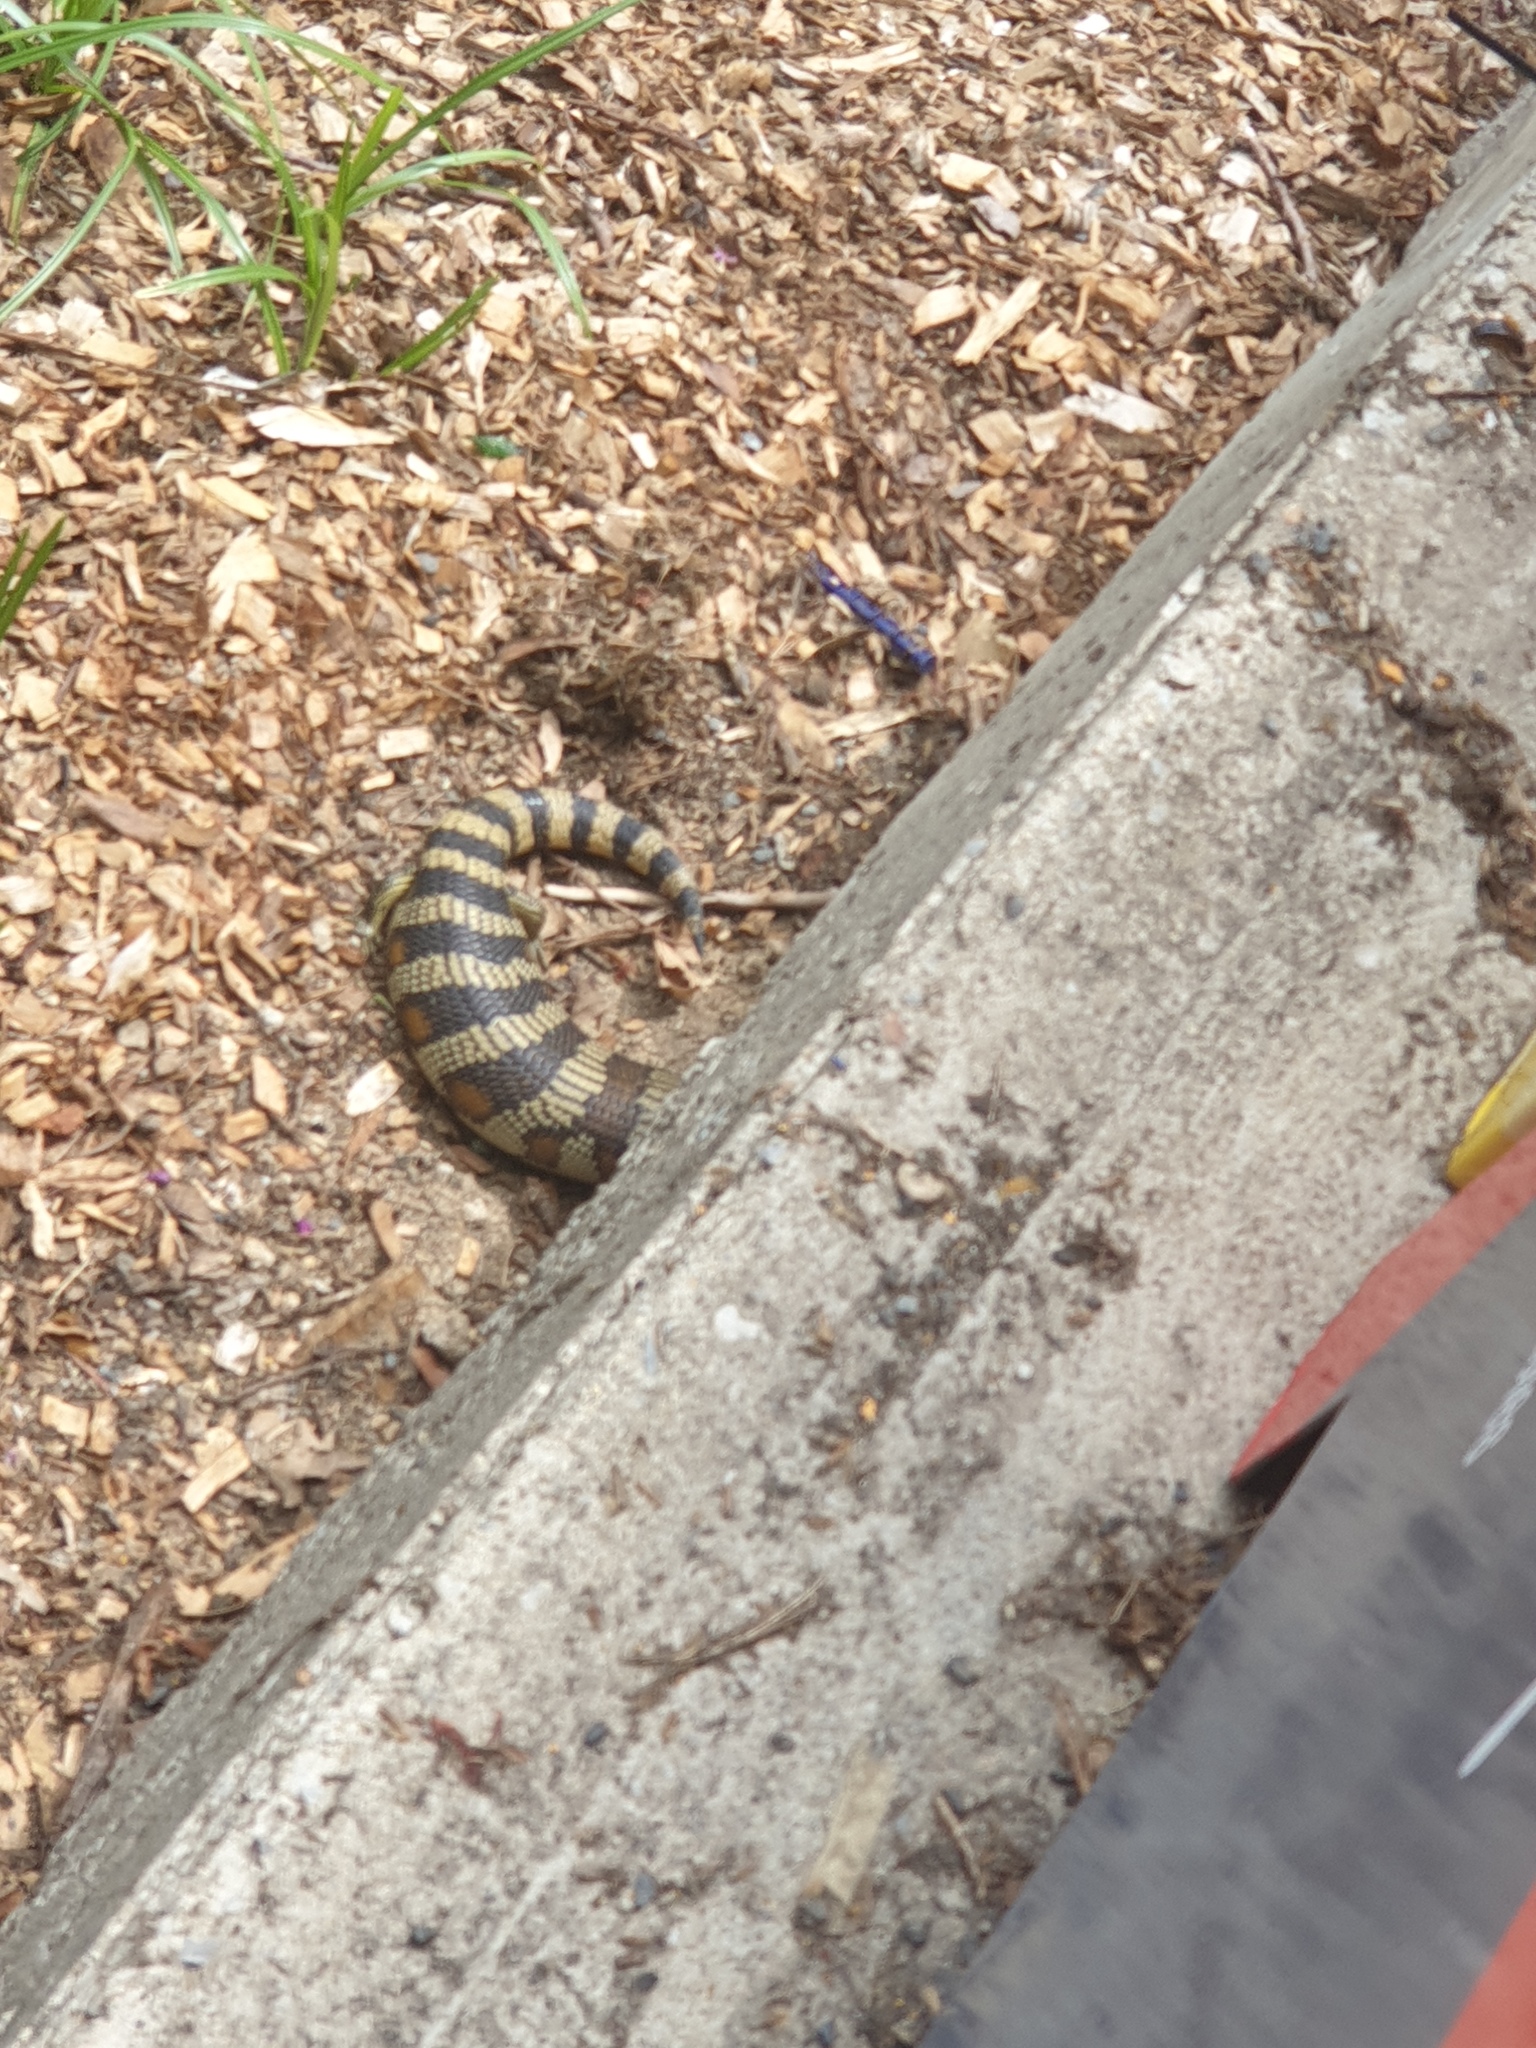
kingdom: Animalia
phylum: Chordata
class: Squamata
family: Scincidae
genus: Tiliqua
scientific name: Tiliqua scincoides
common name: Common bluetongue
